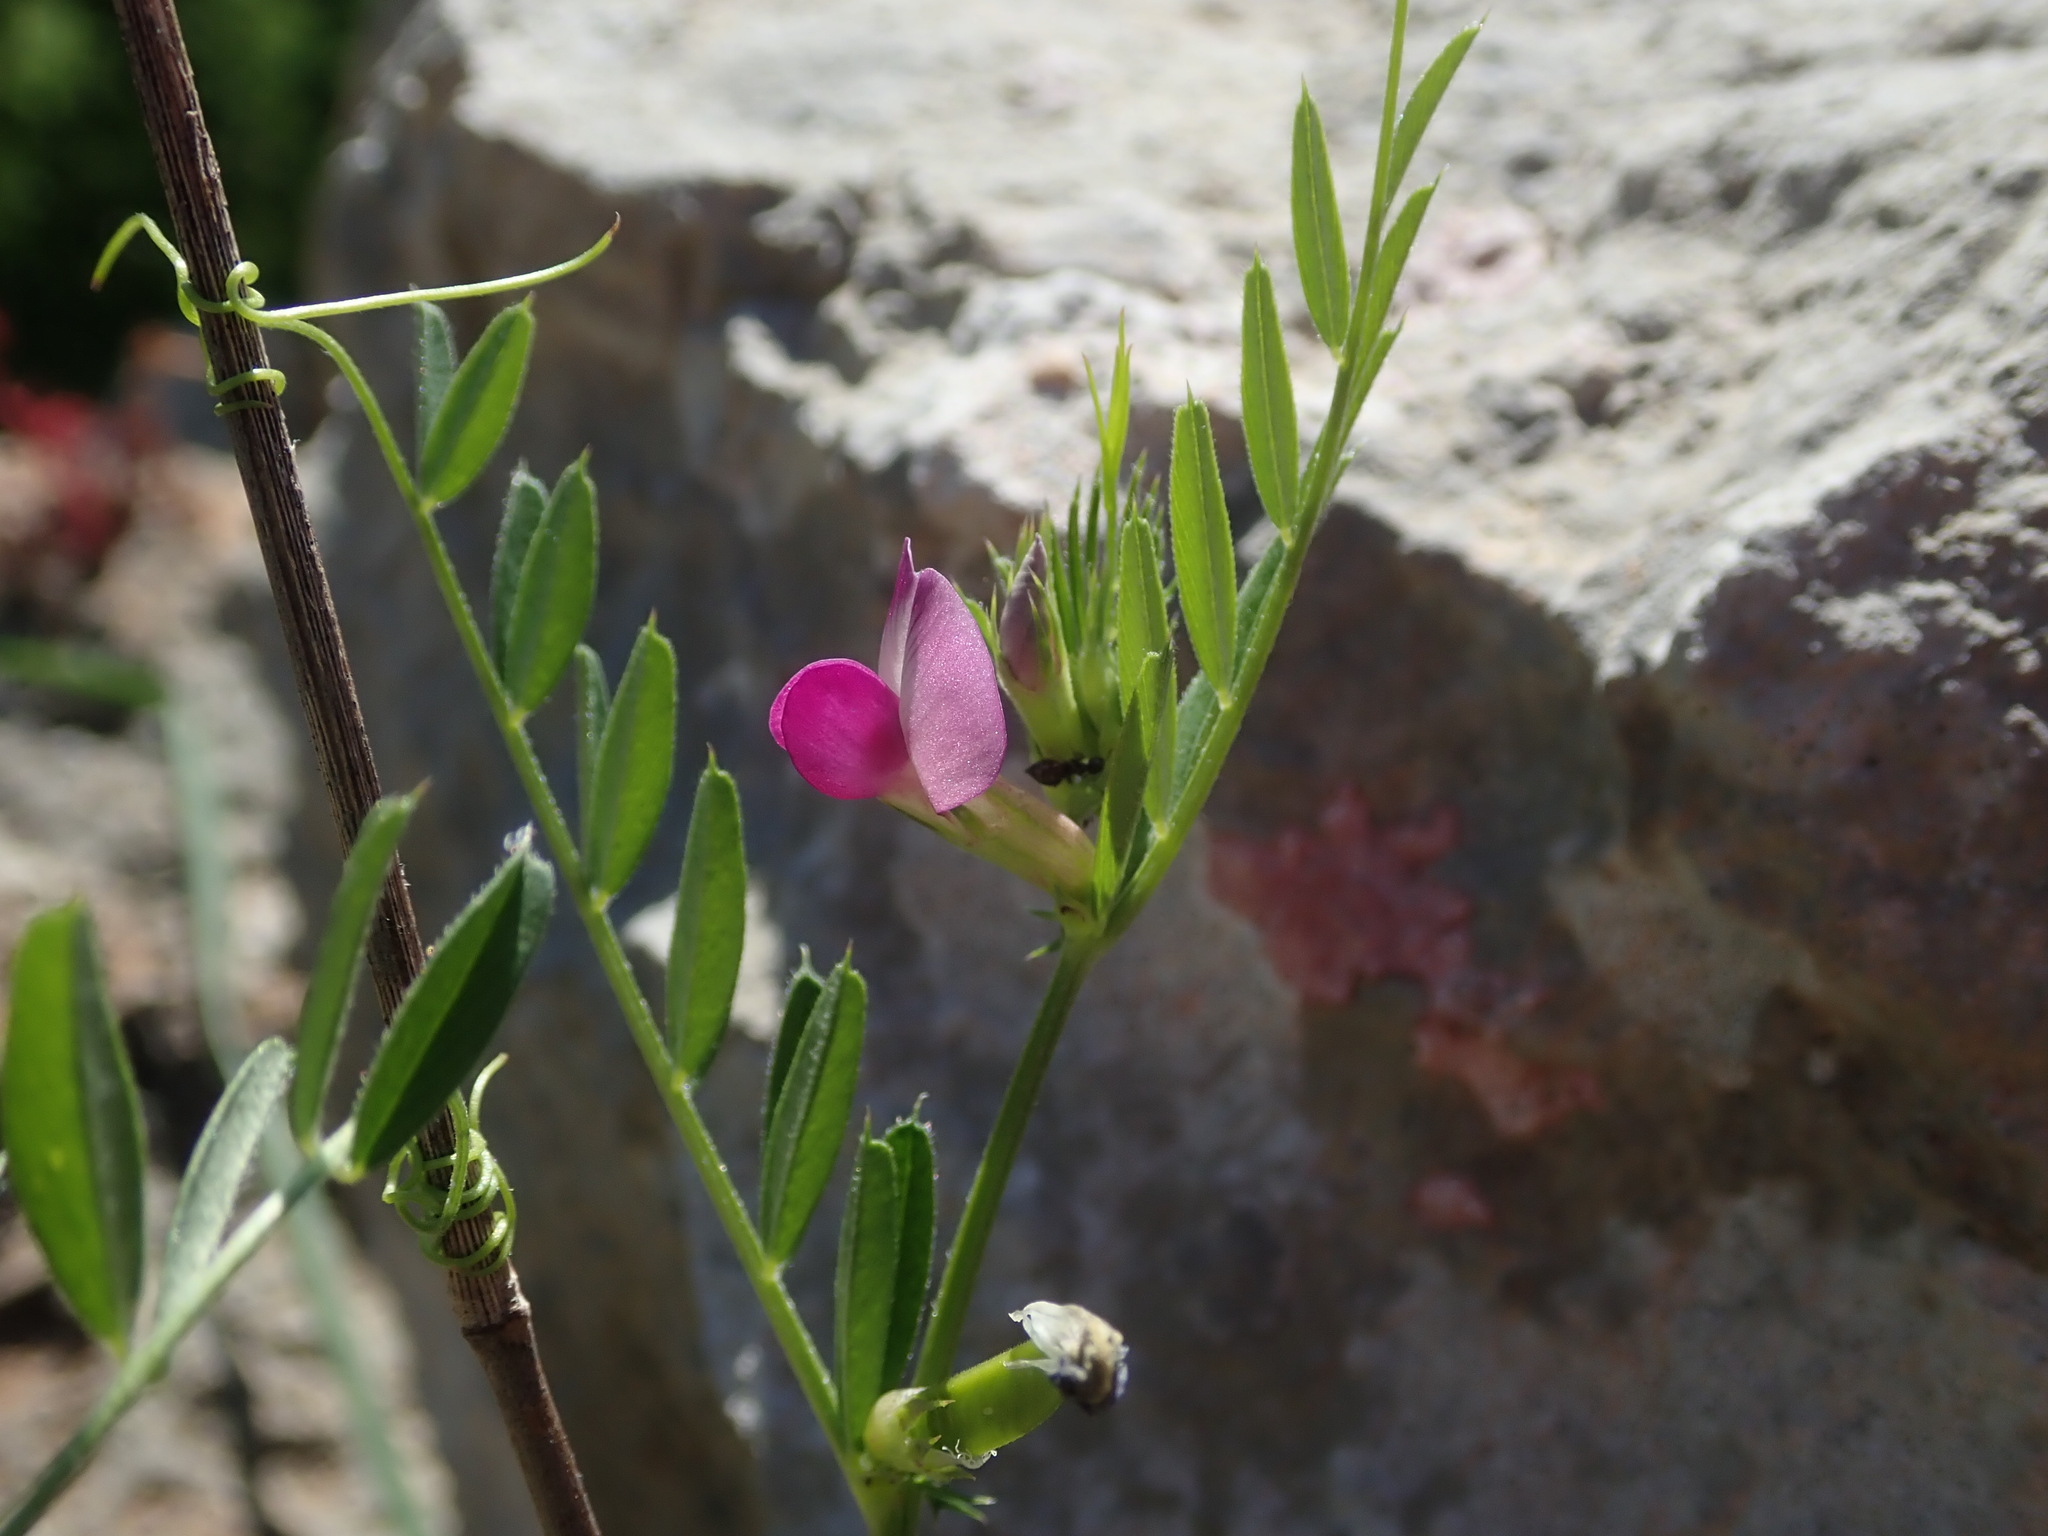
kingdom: Plantae
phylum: Tracheophyta
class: Magnoliopsida
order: Fabales
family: Fabaceae
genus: Vicia
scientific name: Vicia sativa
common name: Garden vetch
